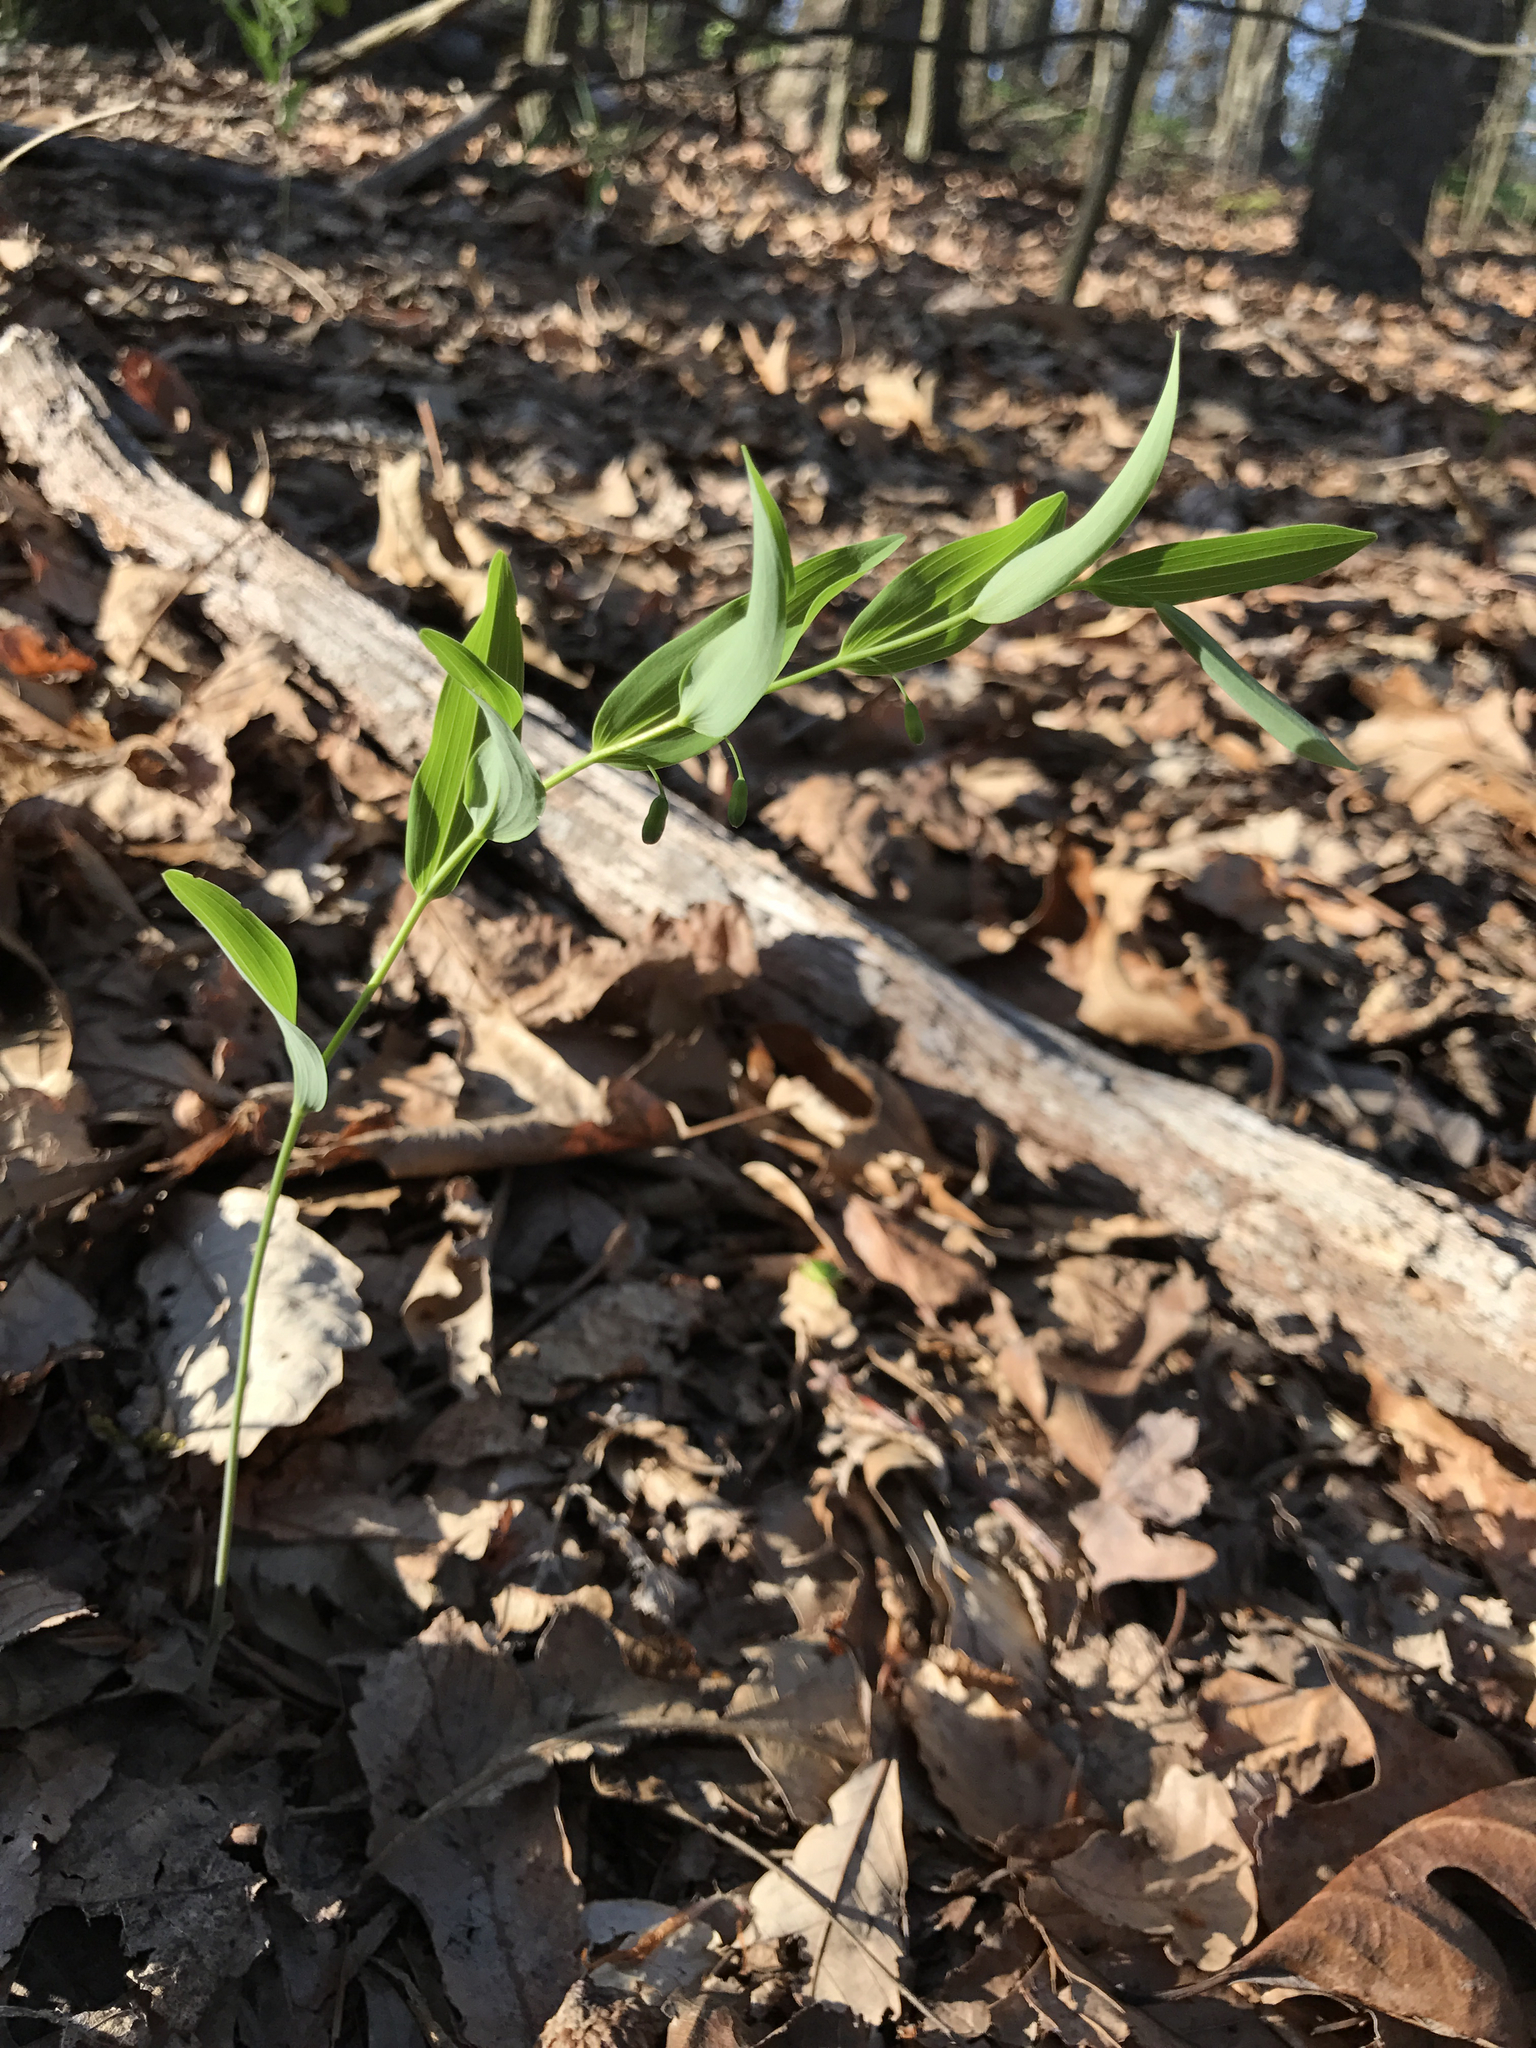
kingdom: Plantae
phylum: Tracheophyta
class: Liliopsida
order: Asparagales
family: Asparagaceae
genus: Polygonatum
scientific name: Polygonatum biflorum
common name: American solomon's-seal
